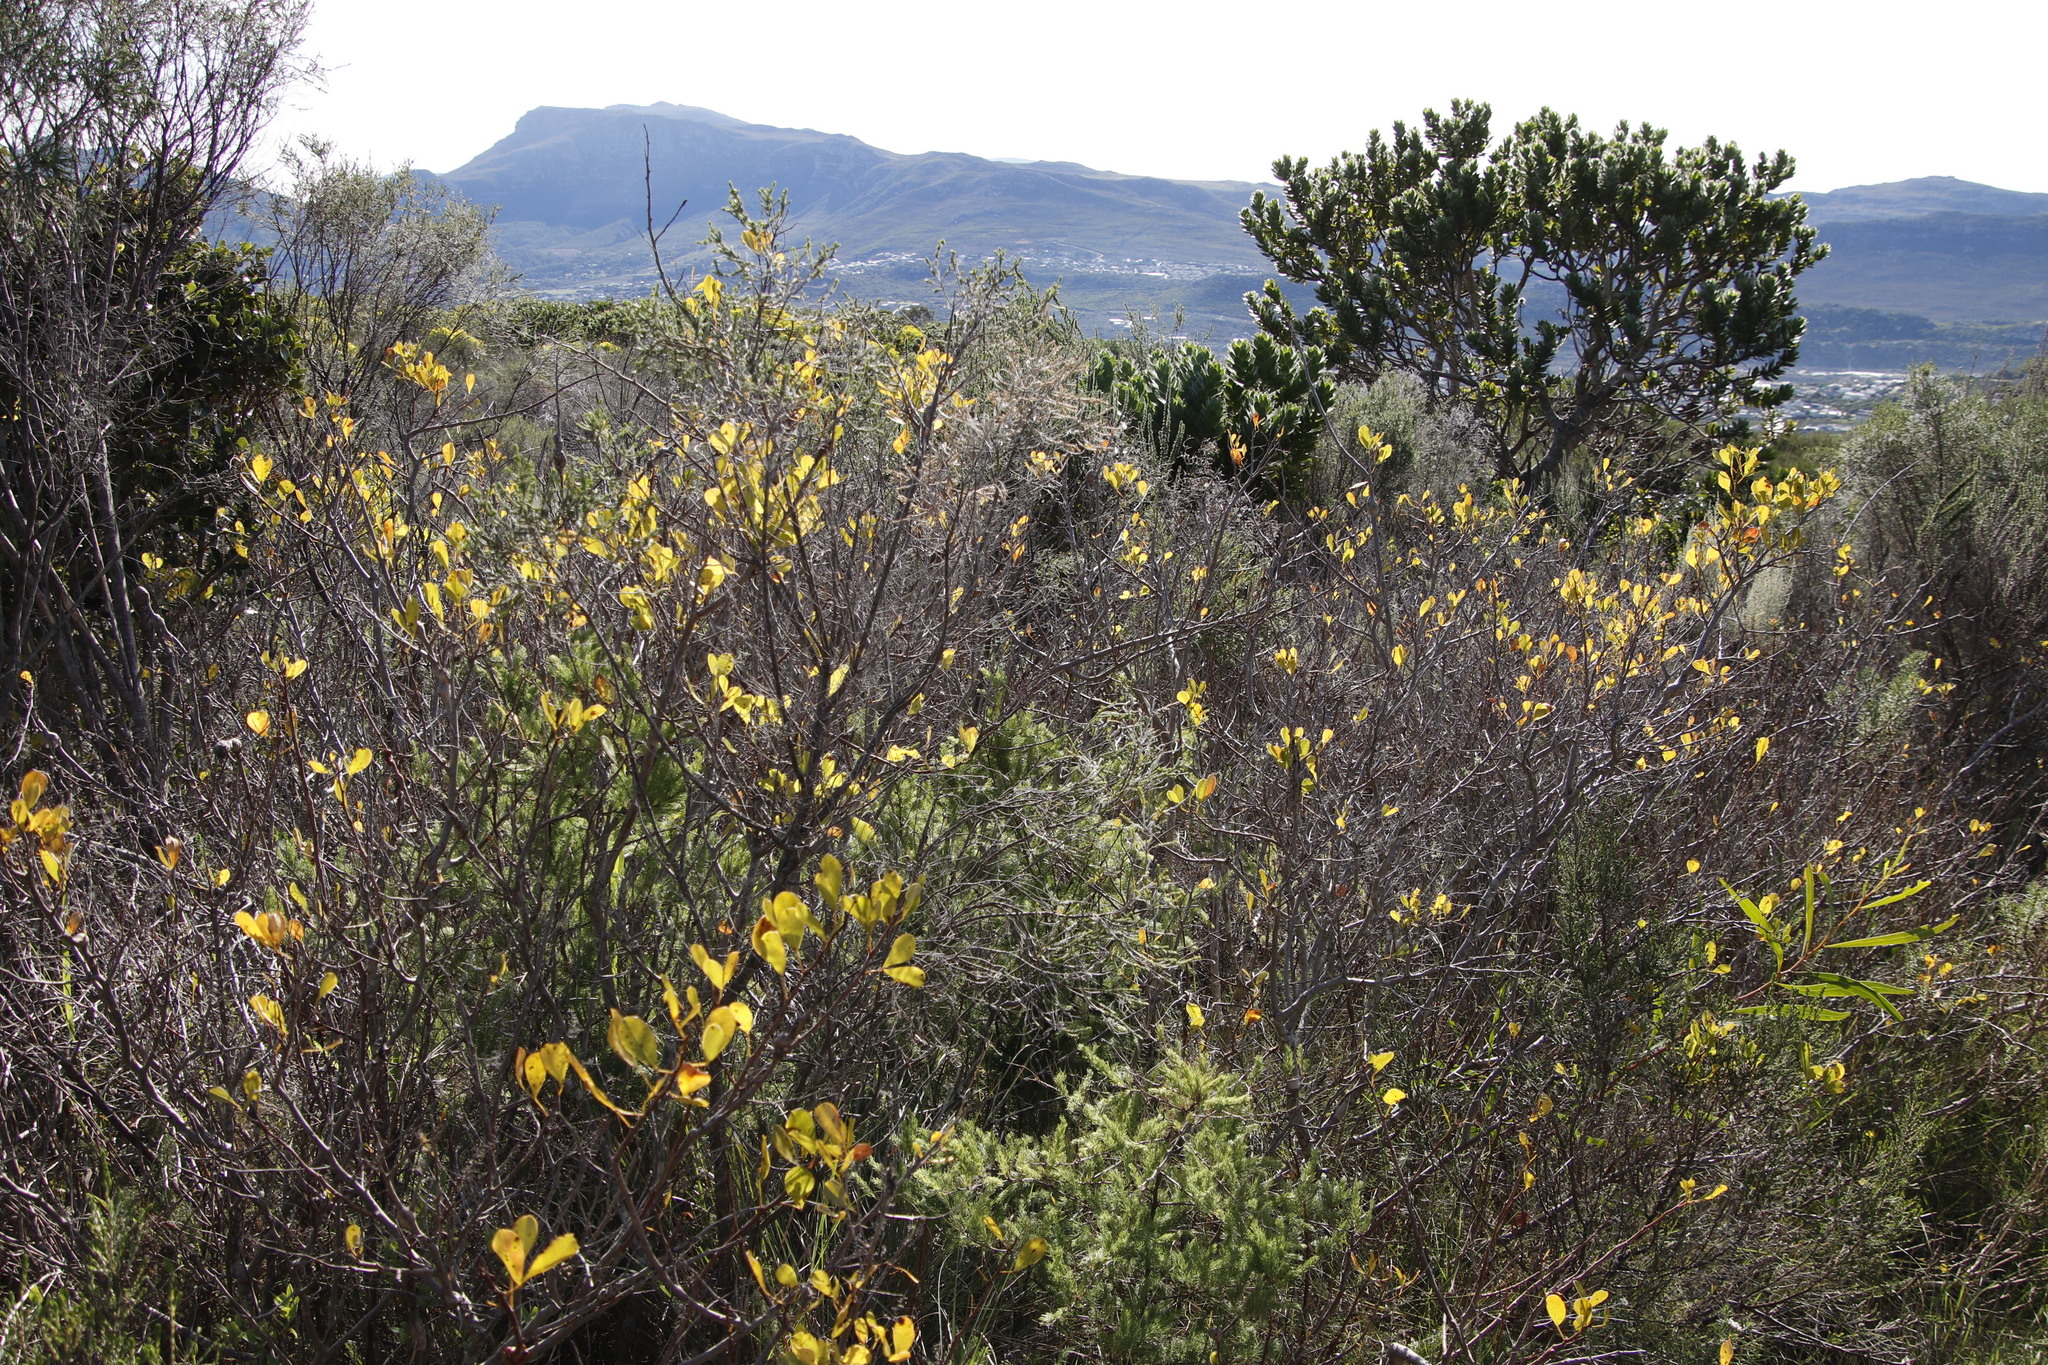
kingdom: Plantae
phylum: Tracheophyta
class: Magnoliopsida
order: Sapindales
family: Anacardiaceae
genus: Searsia
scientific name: Searsia laevigata
